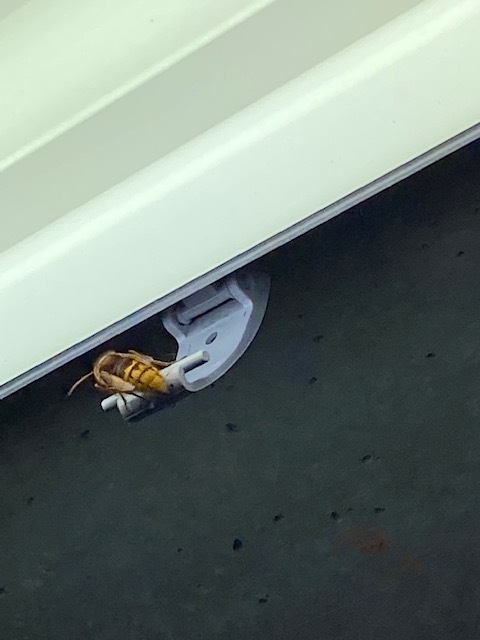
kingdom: Animalia
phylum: Arthropoda
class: Insecta
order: Hymenoptera
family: Vespidae
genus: Vespa
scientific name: Vespa crabro
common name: Hornet
